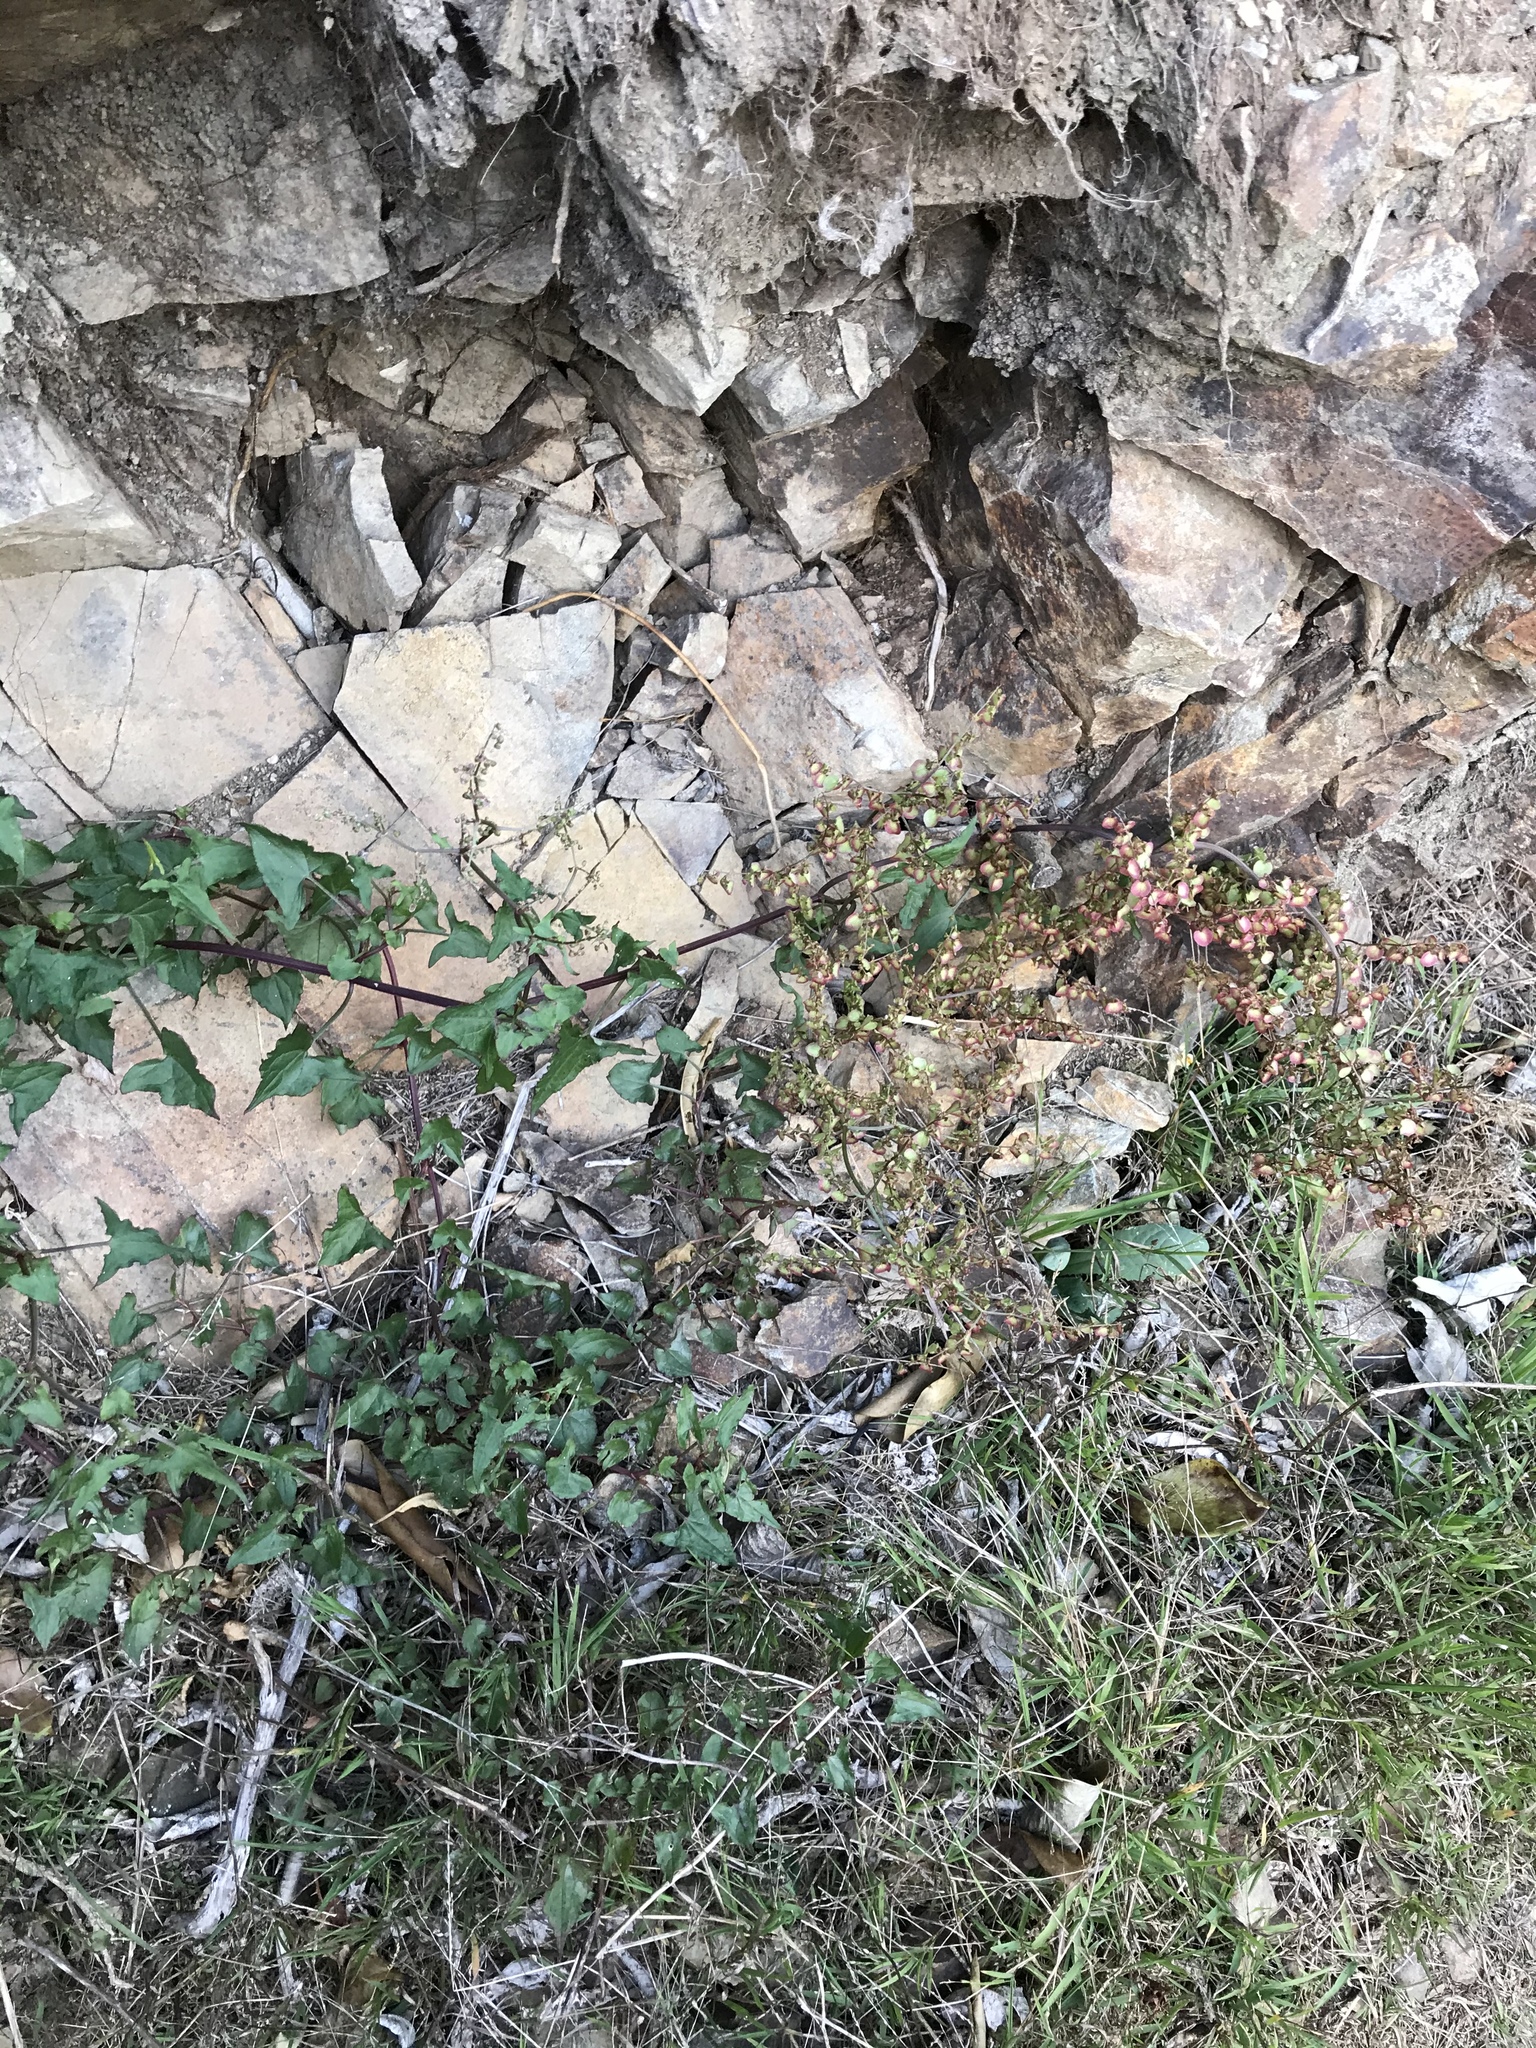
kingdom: Plantae
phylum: Tracheophyta
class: Magnoliopsida
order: Caryophyllales
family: Polygonaceae
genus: Rumex
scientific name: Rumex sagittatus
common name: Climbing dock
